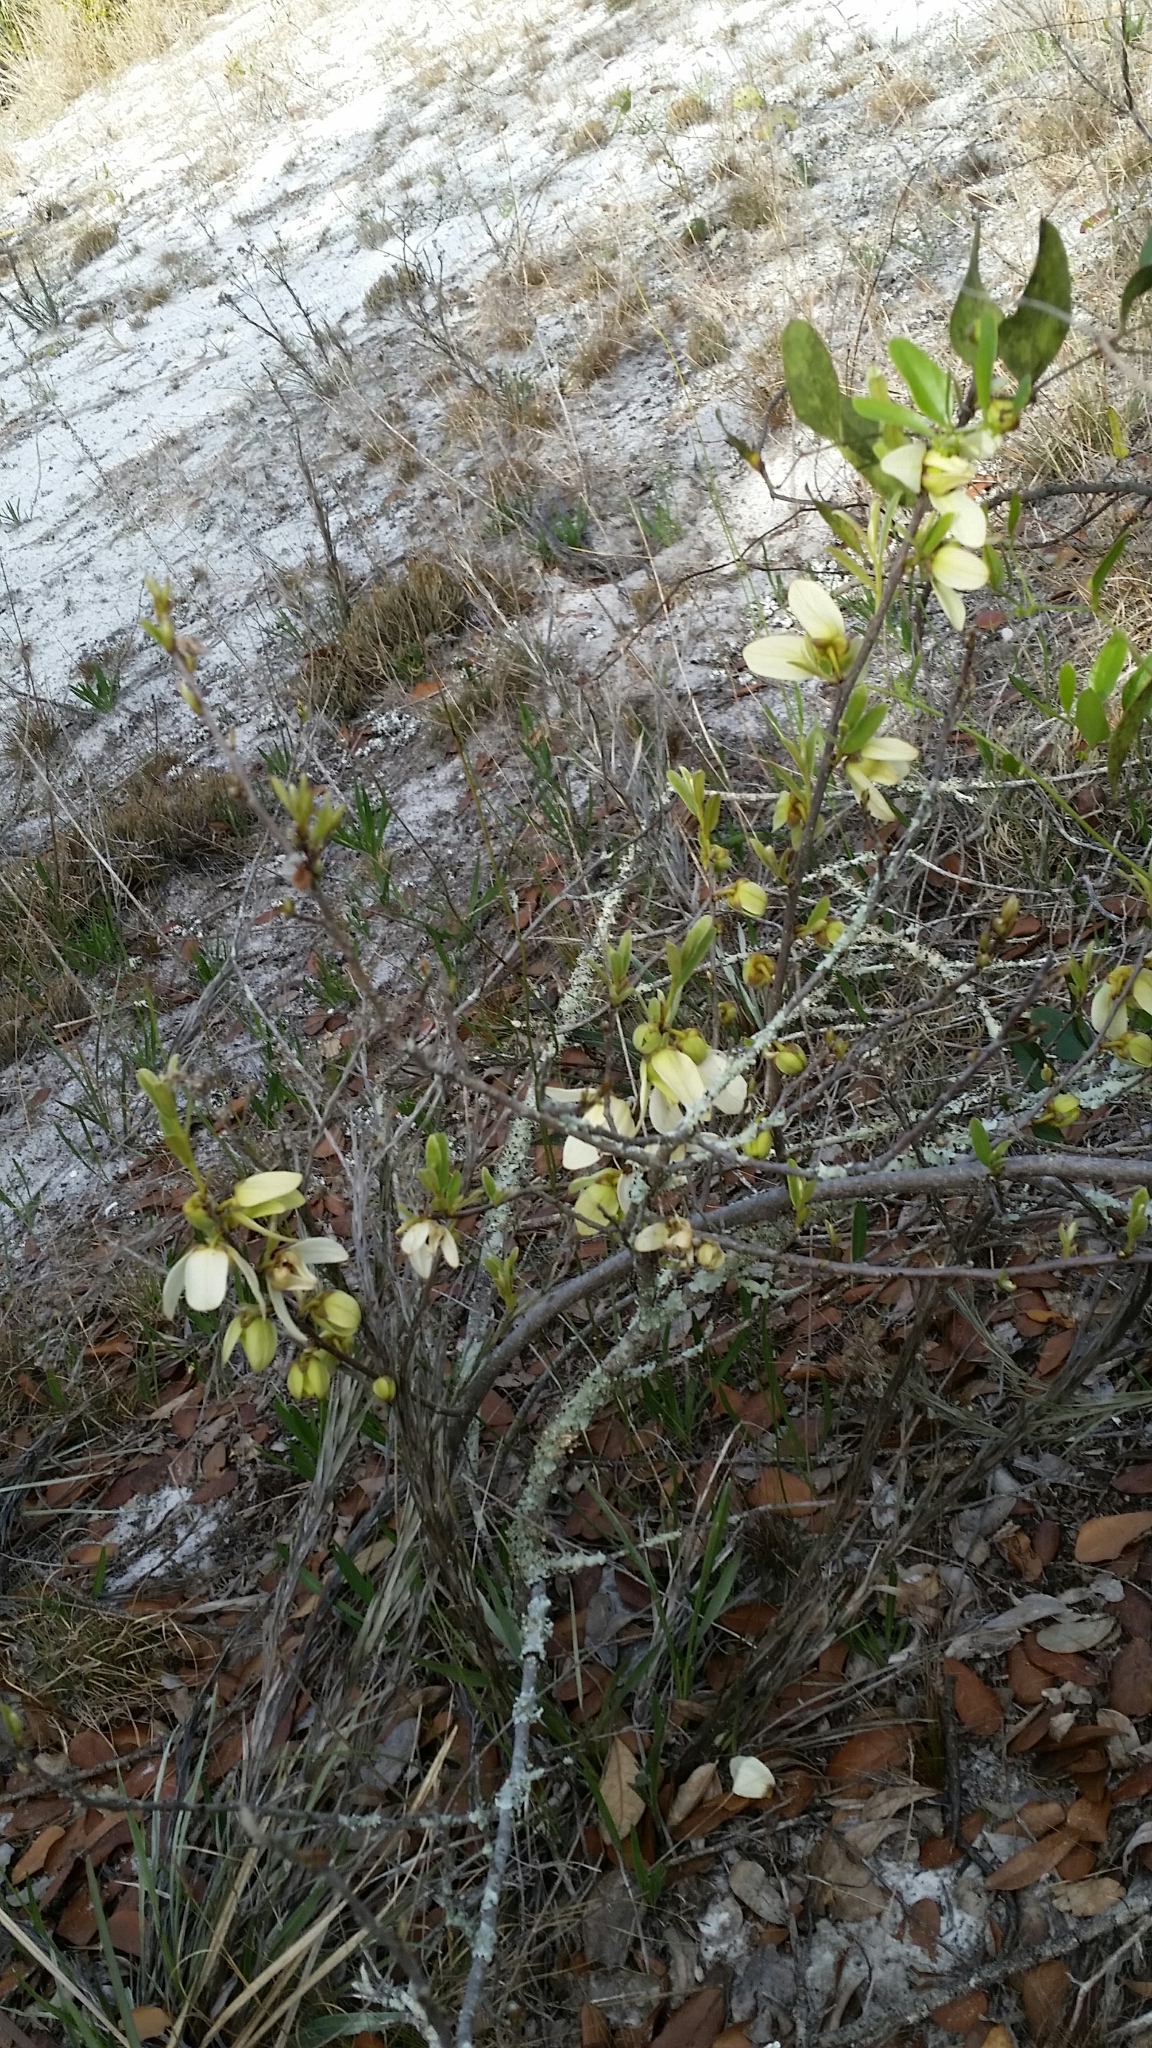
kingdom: Plantae
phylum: Tracheophyta
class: Magnoliopsida
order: Magnoliales
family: Annonaceae
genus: Asimina
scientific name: Asimina reticulata
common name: Flag pawpaw
